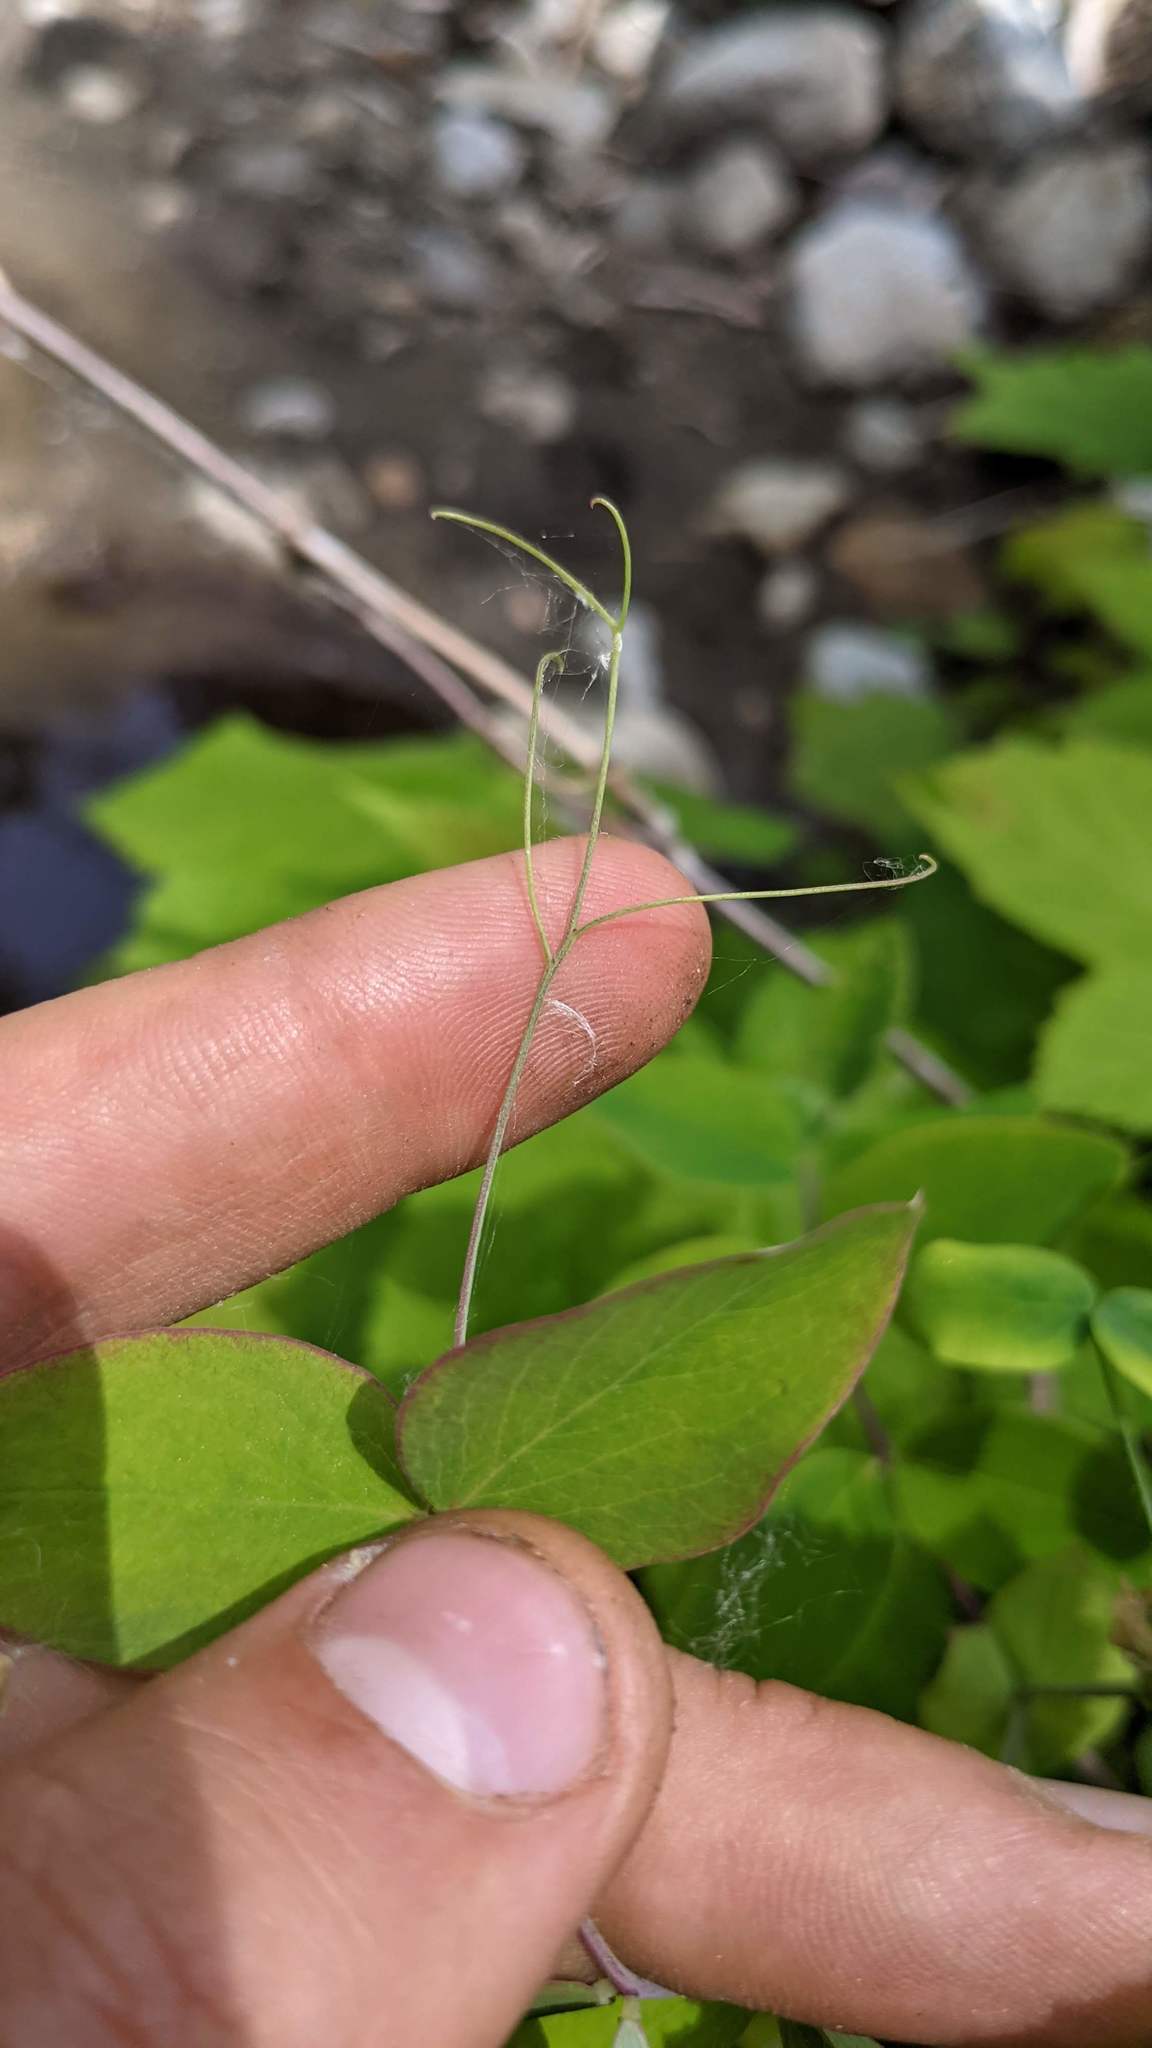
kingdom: Plantae
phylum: Tracheophyta
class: Magnoliopsida
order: Fabales
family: Fabaceae
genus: Lathyrus
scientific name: Lathyrus ochroleucus
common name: Pale vetchling
